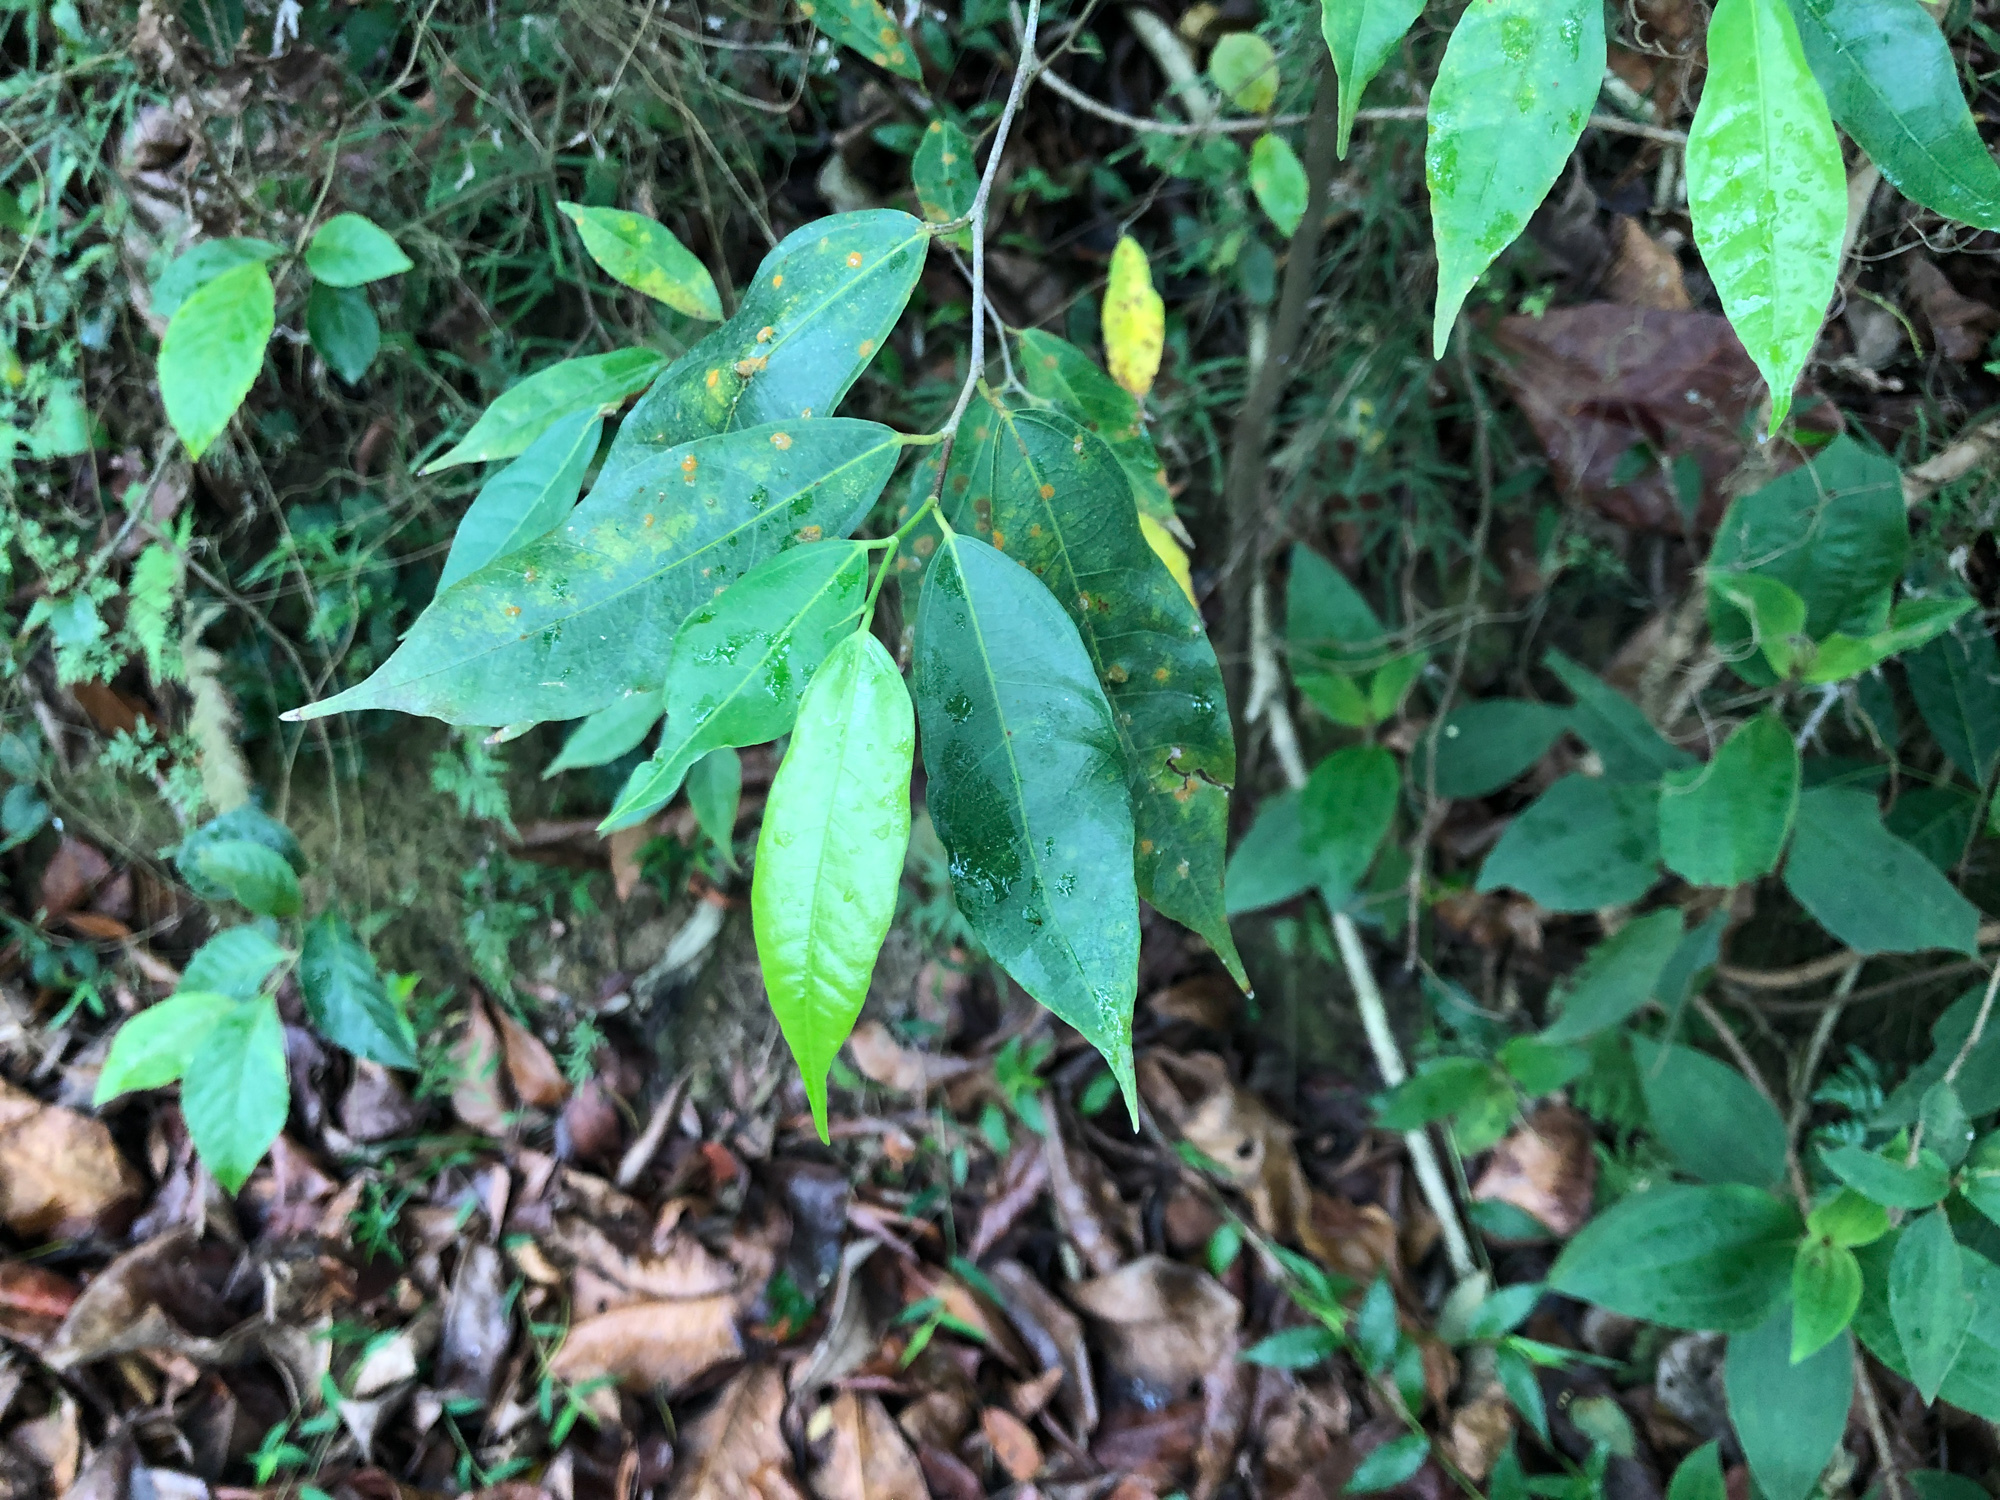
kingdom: Plantae
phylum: Tracheophyta
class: Magnoliopsida
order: Rosales
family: Moraceae
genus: Ficus
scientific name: Ficus ampelos
